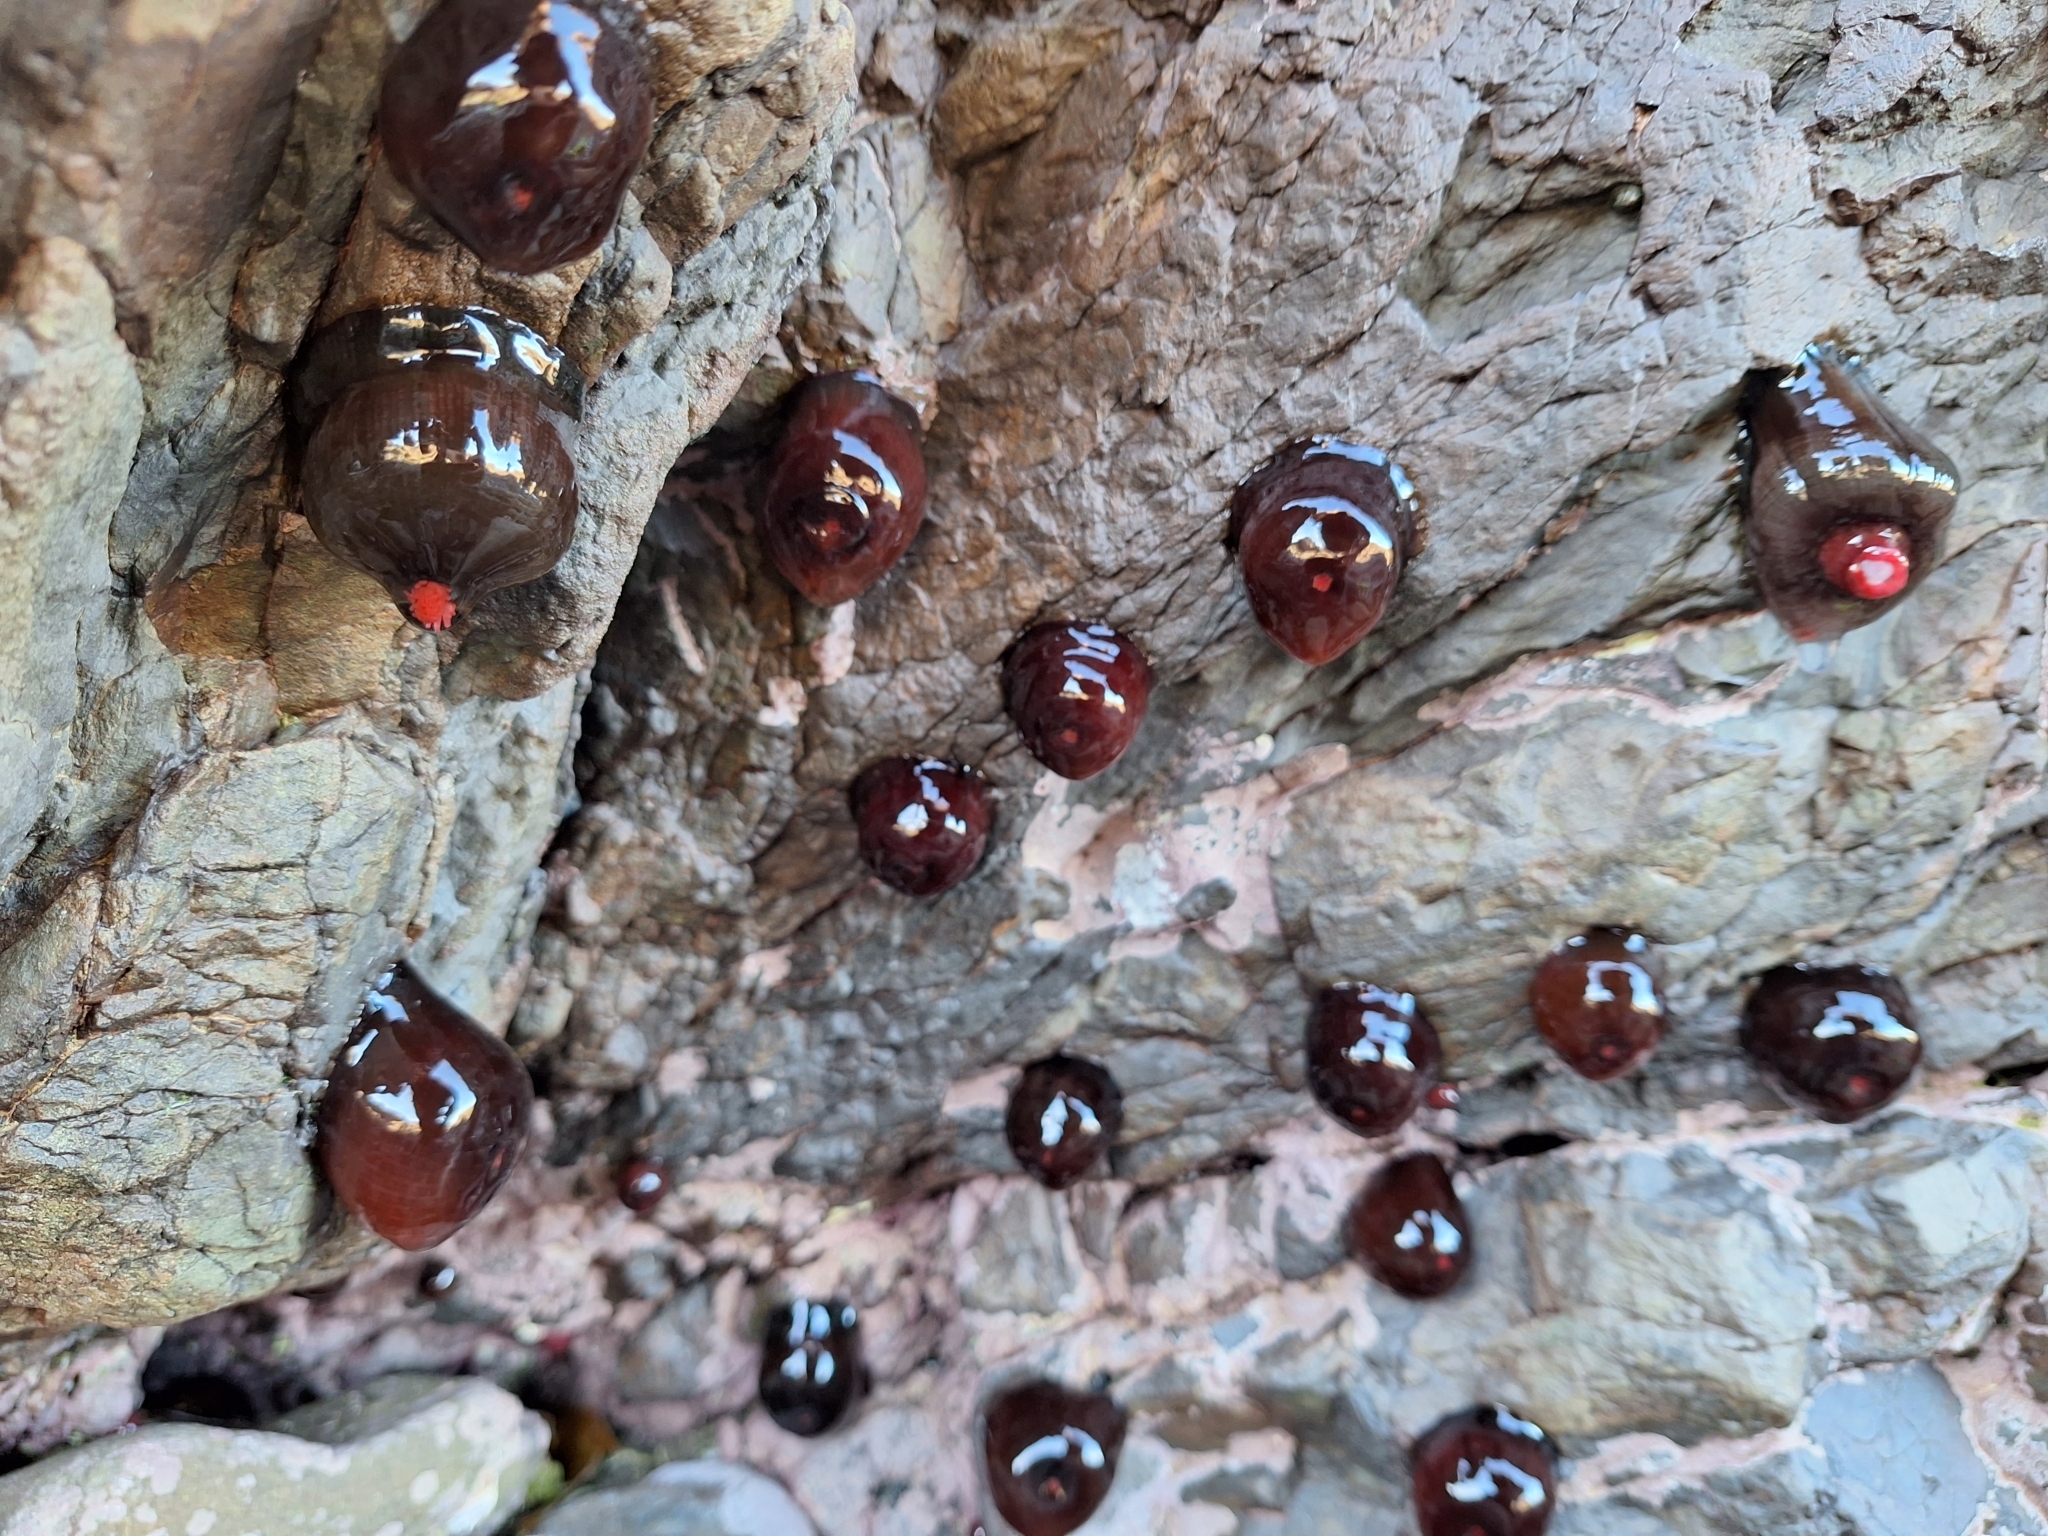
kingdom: Animalia
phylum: Cnidaria
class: Anthozoa
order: Actiniaria
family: Actiniidae
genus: Actinia
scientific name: Actinia tenebrosa
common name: Waratah anemone
